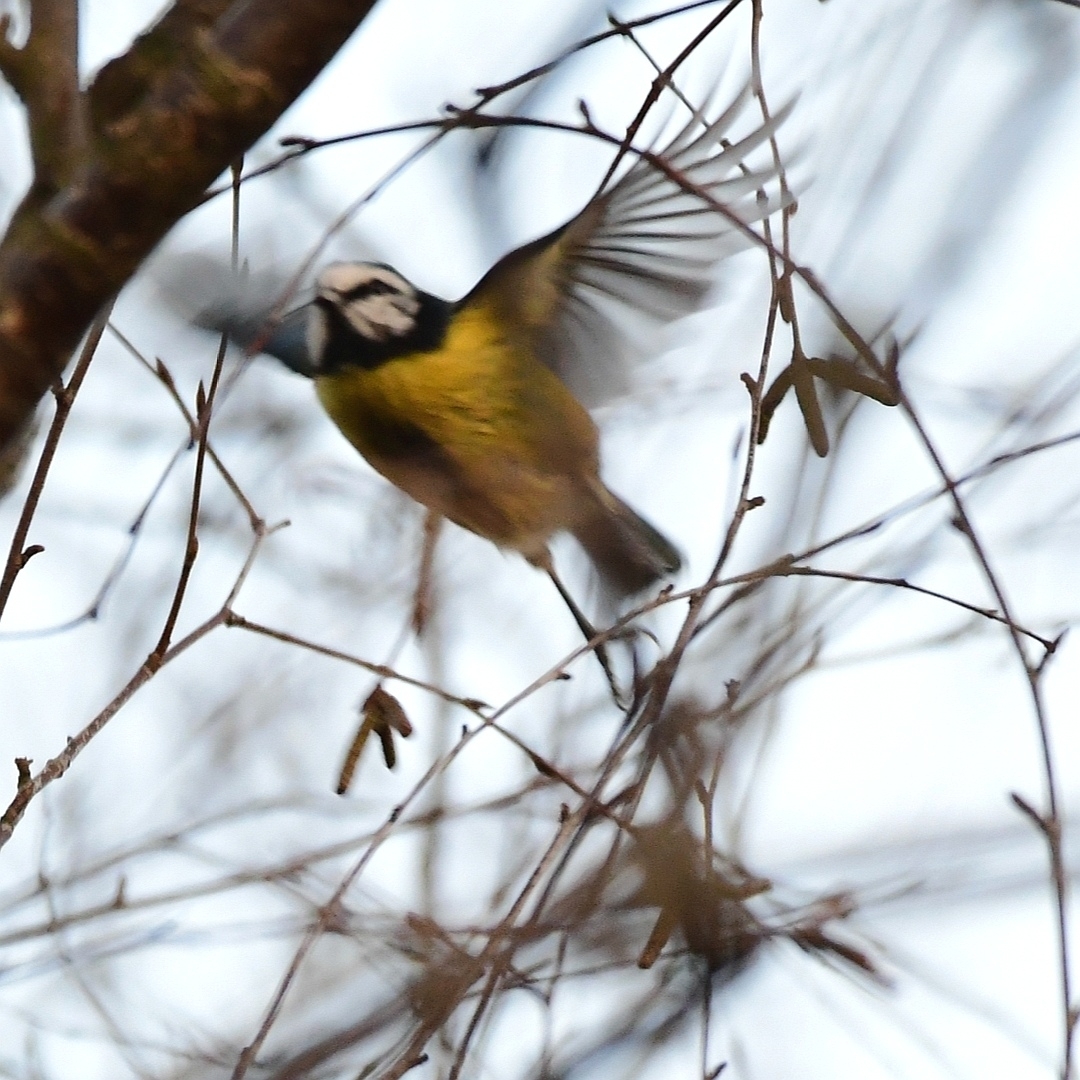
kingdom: Animalia
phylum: Chordata
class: Aves
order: Passeriformes
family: Paridae
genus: Cyanistes
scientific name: Cyanistes caeruleus
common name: Eurasian blue tit
